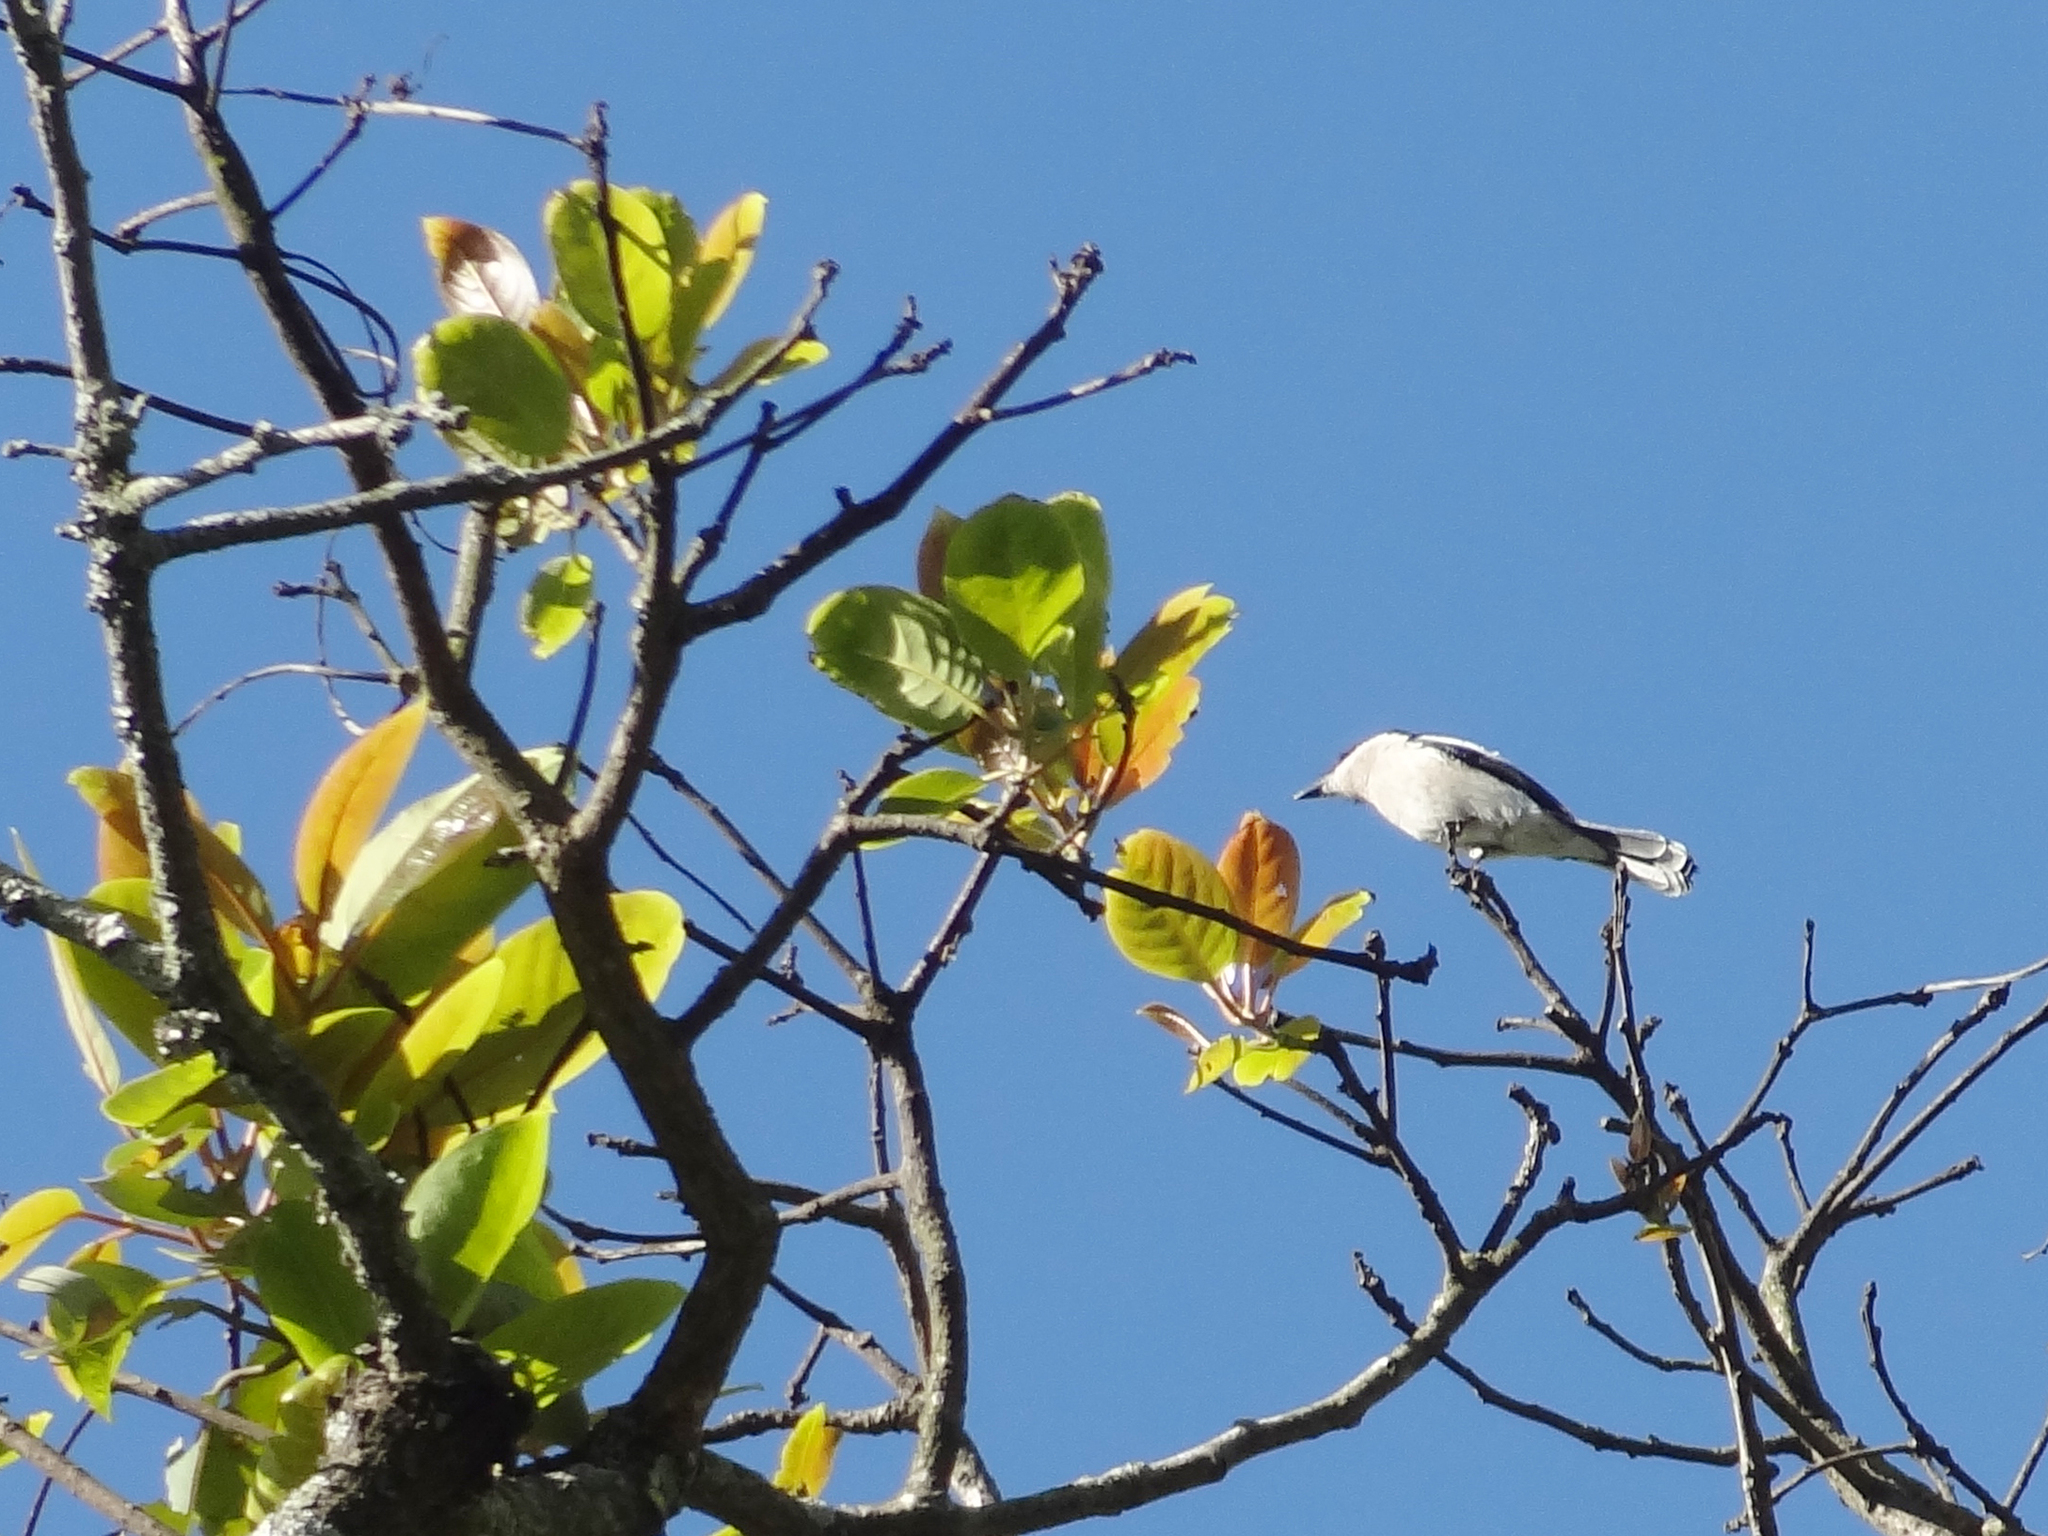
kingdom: Animalia
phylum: Chordata
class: Aves
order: Passeriformes
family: Tephrodornithidae
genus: Hemipus
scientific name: Hemipus picatus
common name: Bar-winged flycatcher-shrike
